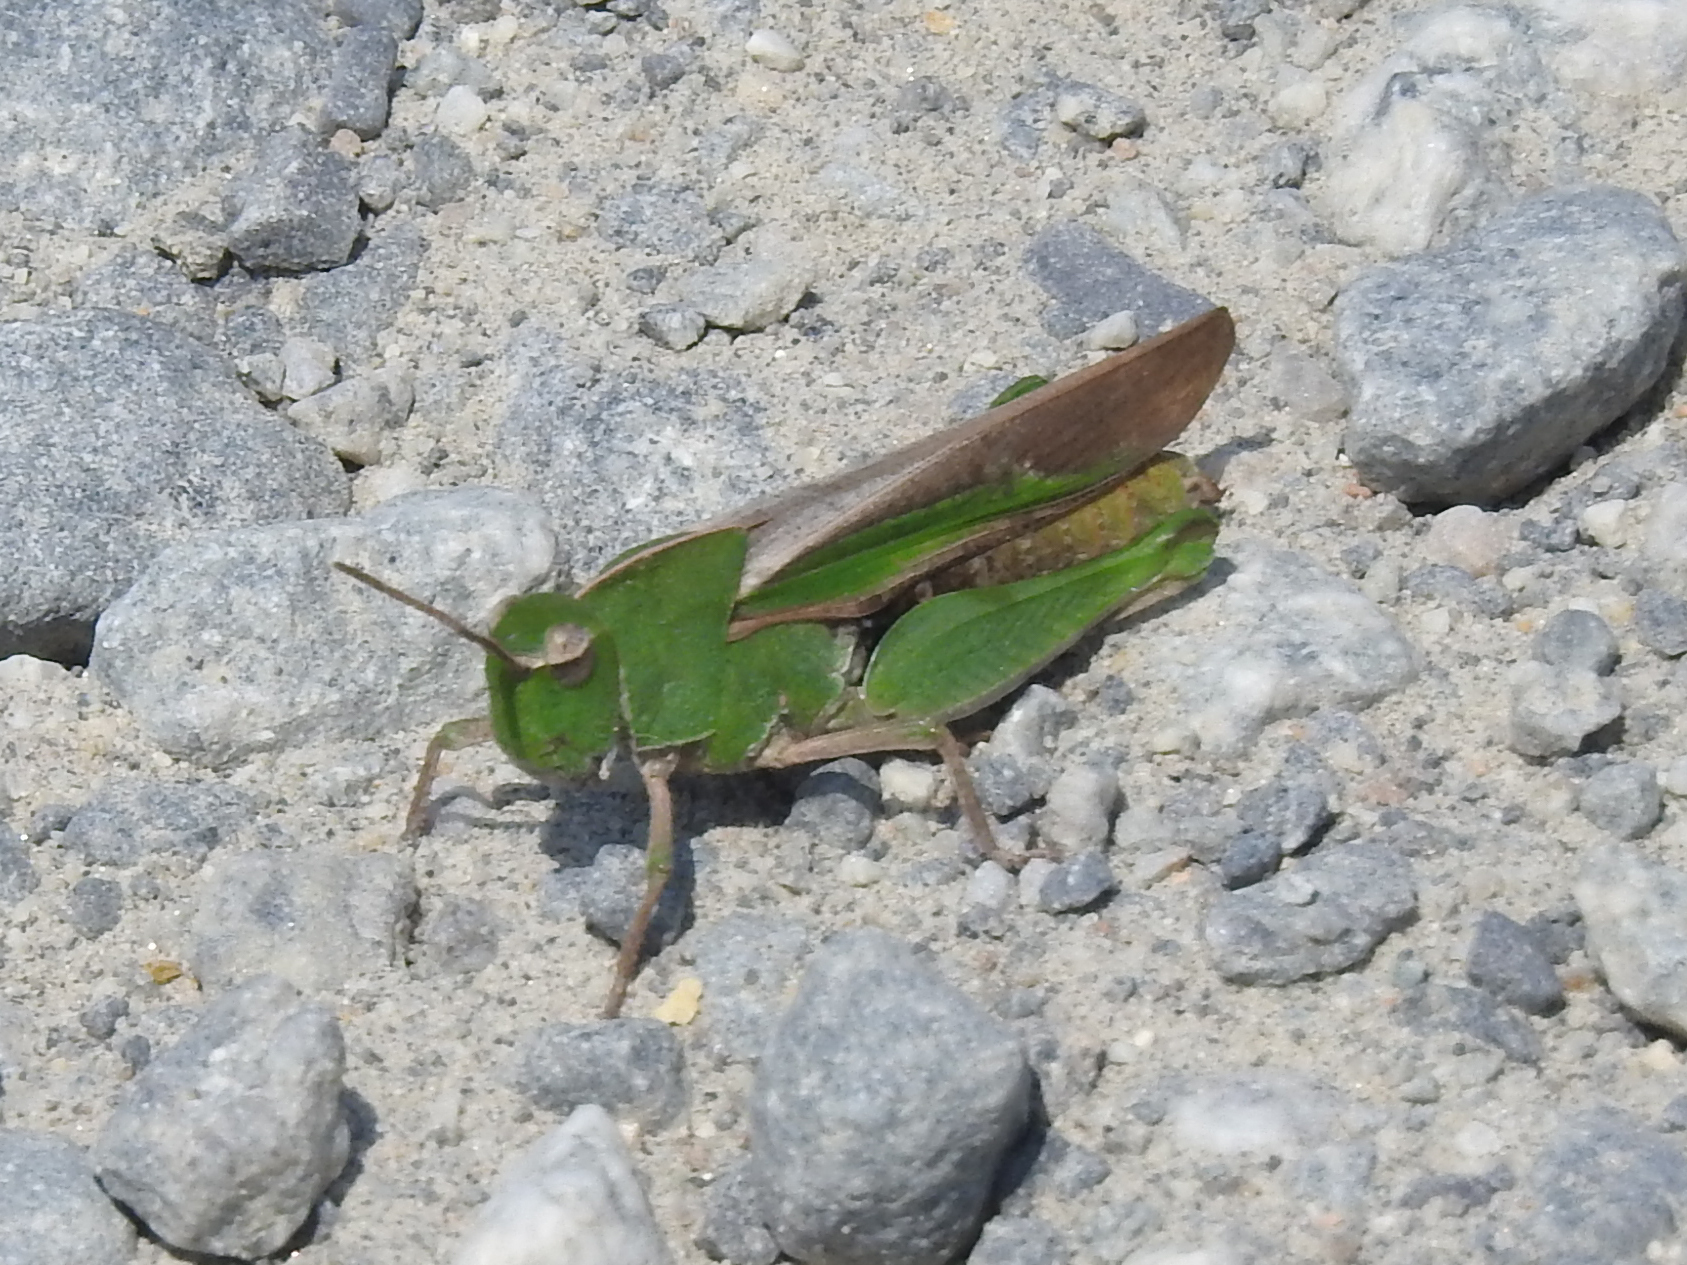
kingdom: Animalia
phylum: Arthropoda
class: Insecta
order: Orthoptera
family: Acrididae
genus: Chortophaga
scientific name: Chortophaga viridifasciata
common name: Green-striped grasshopper
